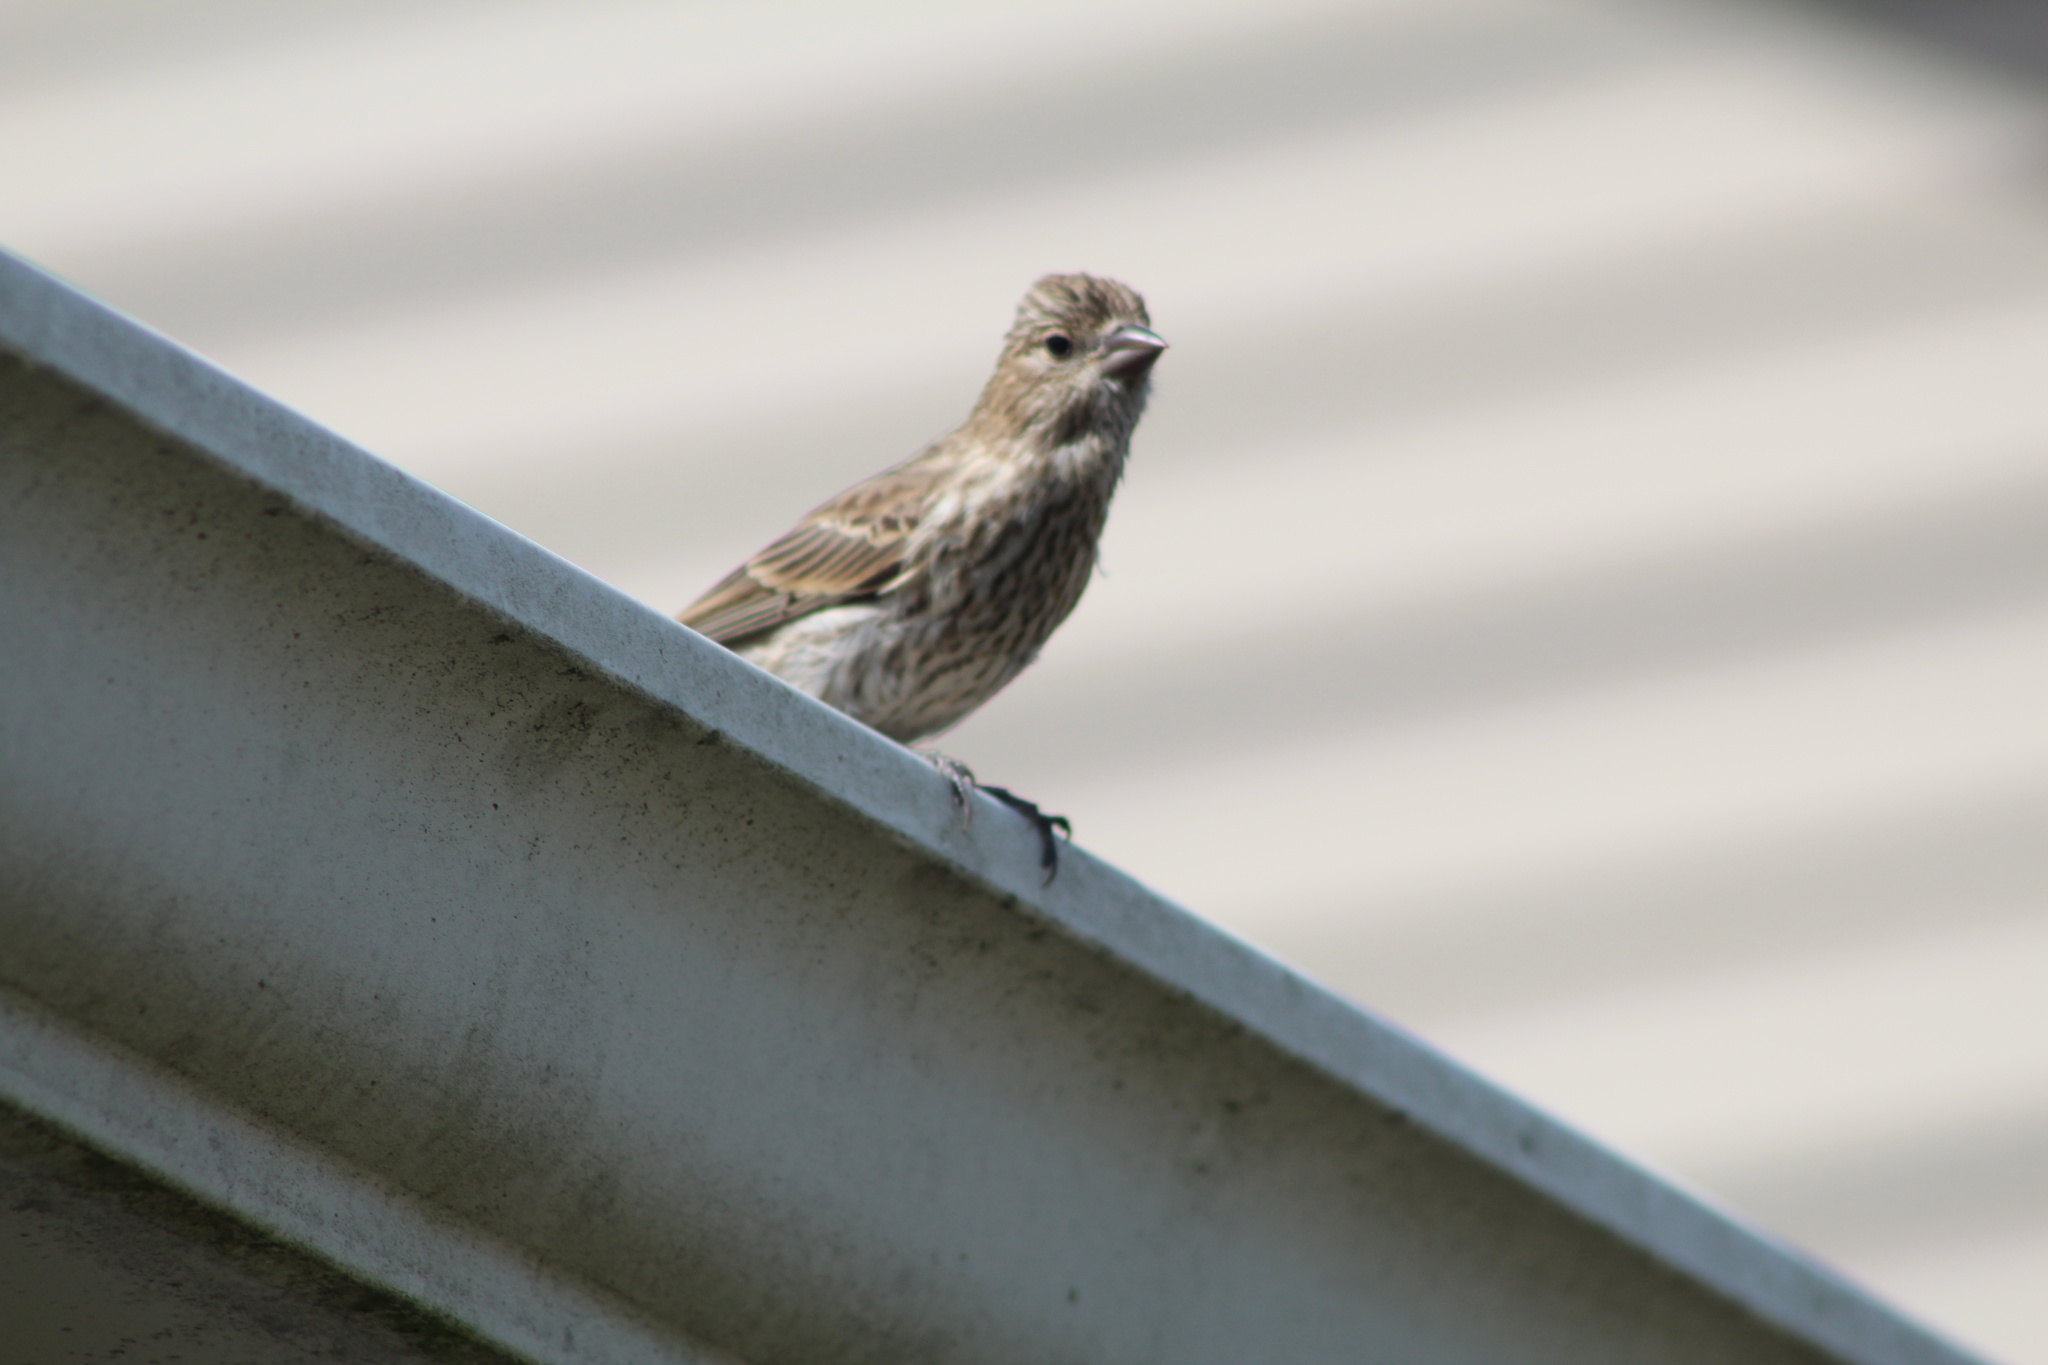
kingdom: Animalia
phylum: Chordata
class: Aves
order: Passeriformes
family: Fringillidae
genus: Haemorhous
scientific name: Haemorhous mexicanus
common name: House finch
